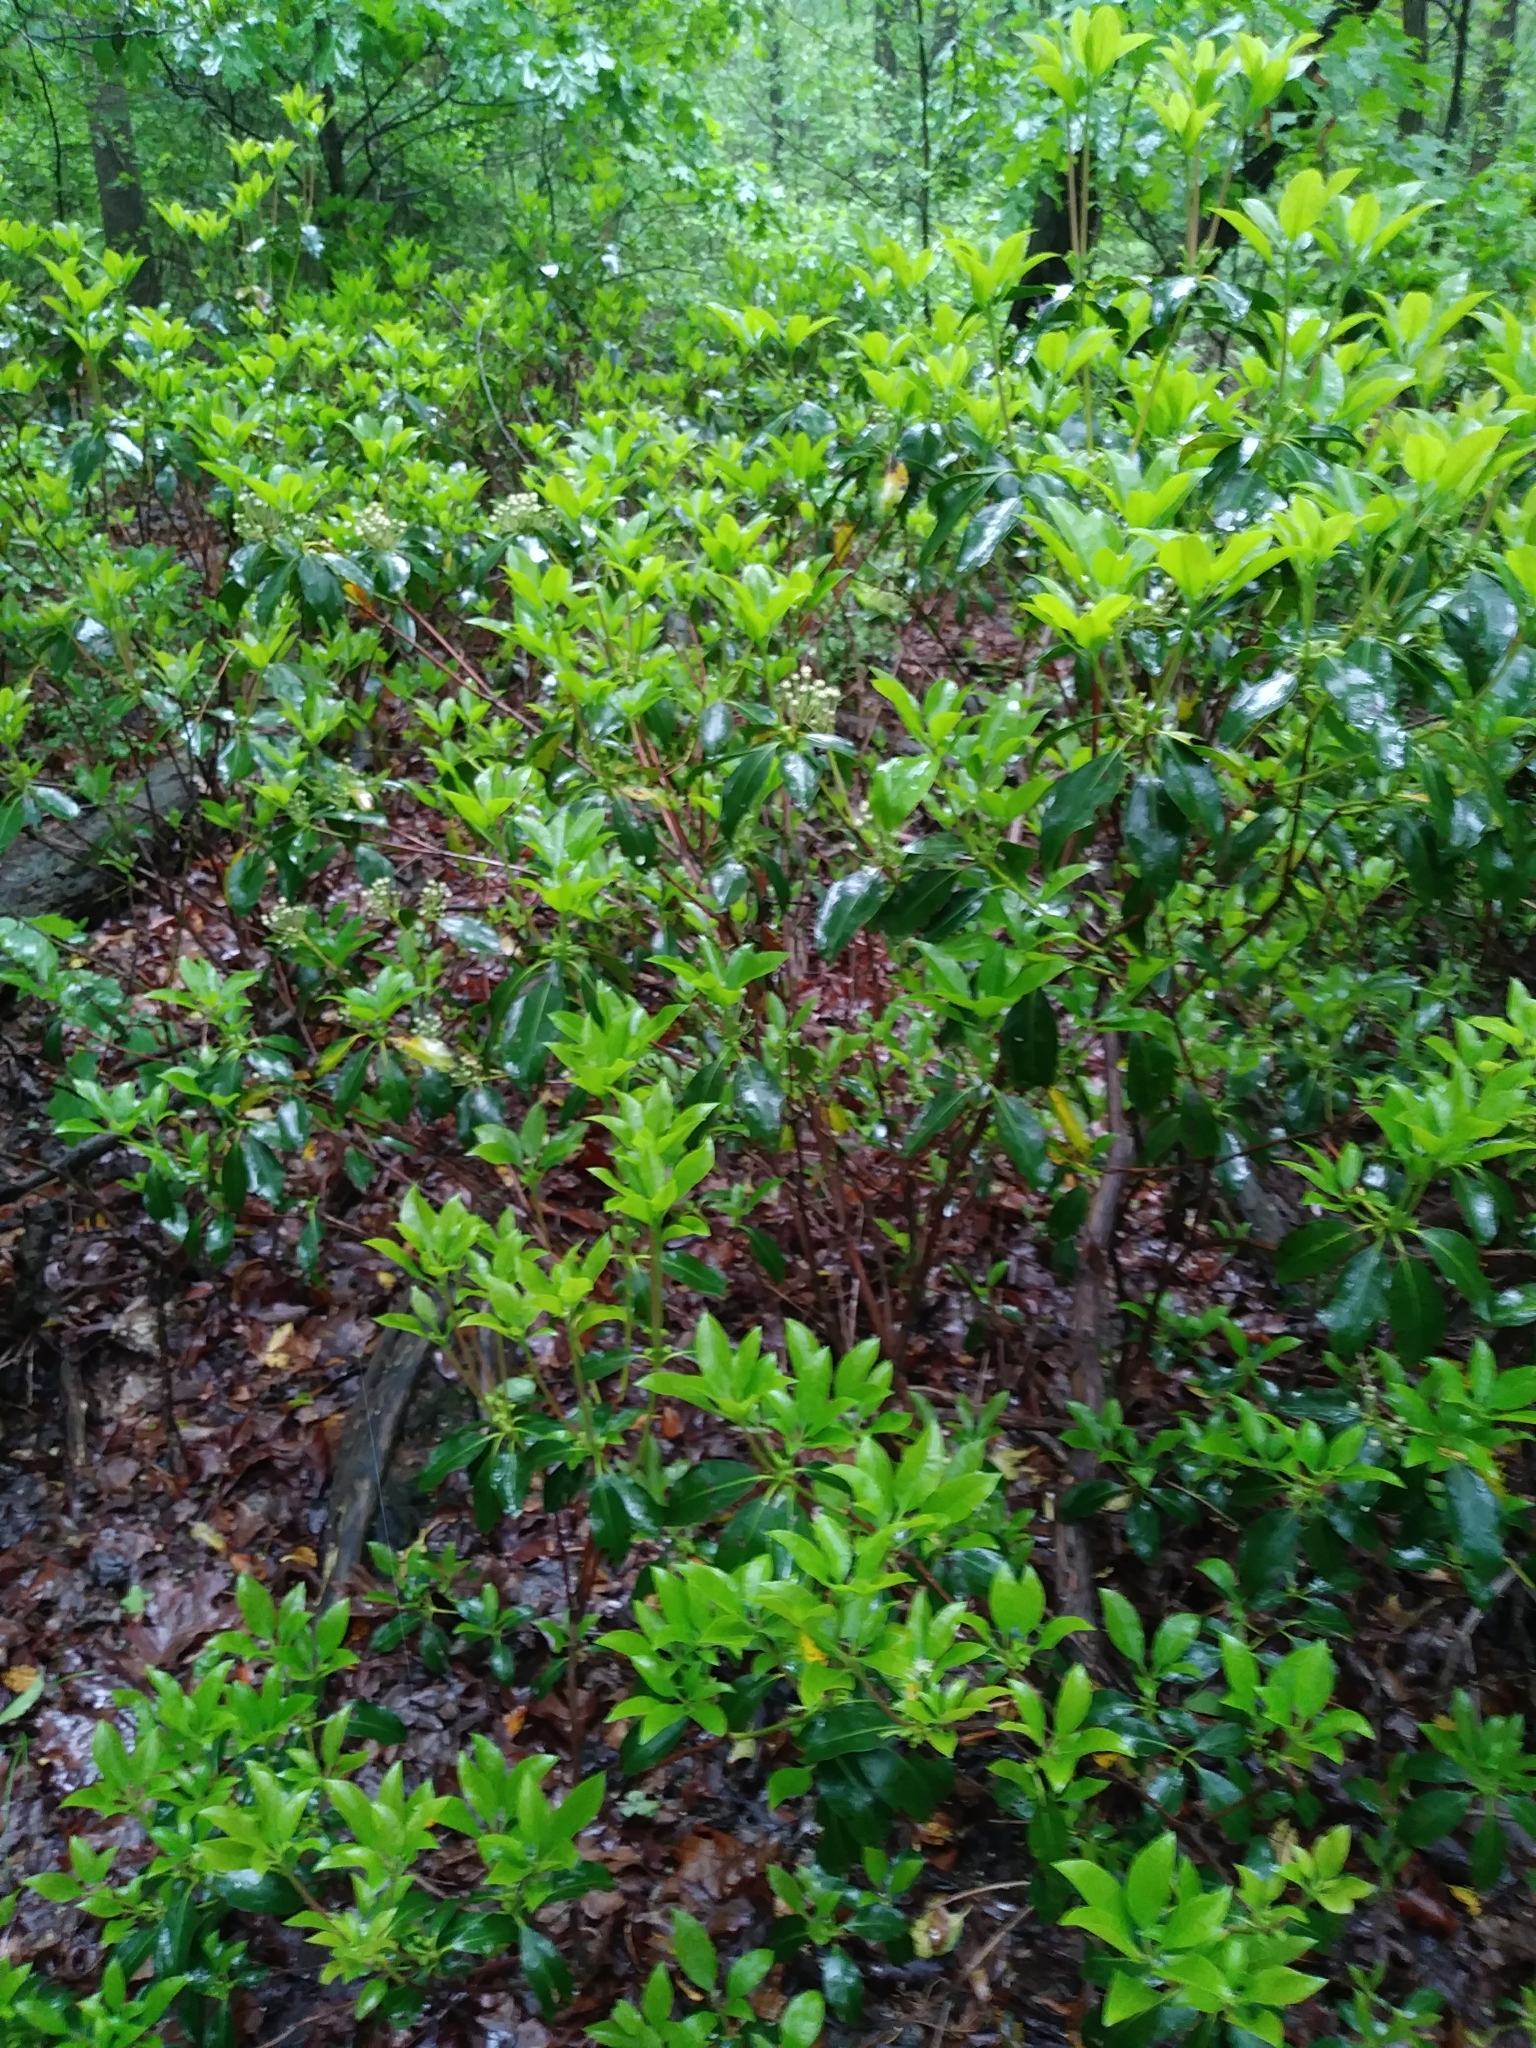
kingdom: Plantae
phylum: Tracheophyta
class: Magnoliopsida
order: Ericales
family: Ericaceae
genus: Kalmia
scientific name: Kalmia latifolia
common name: Mountain-laurel
